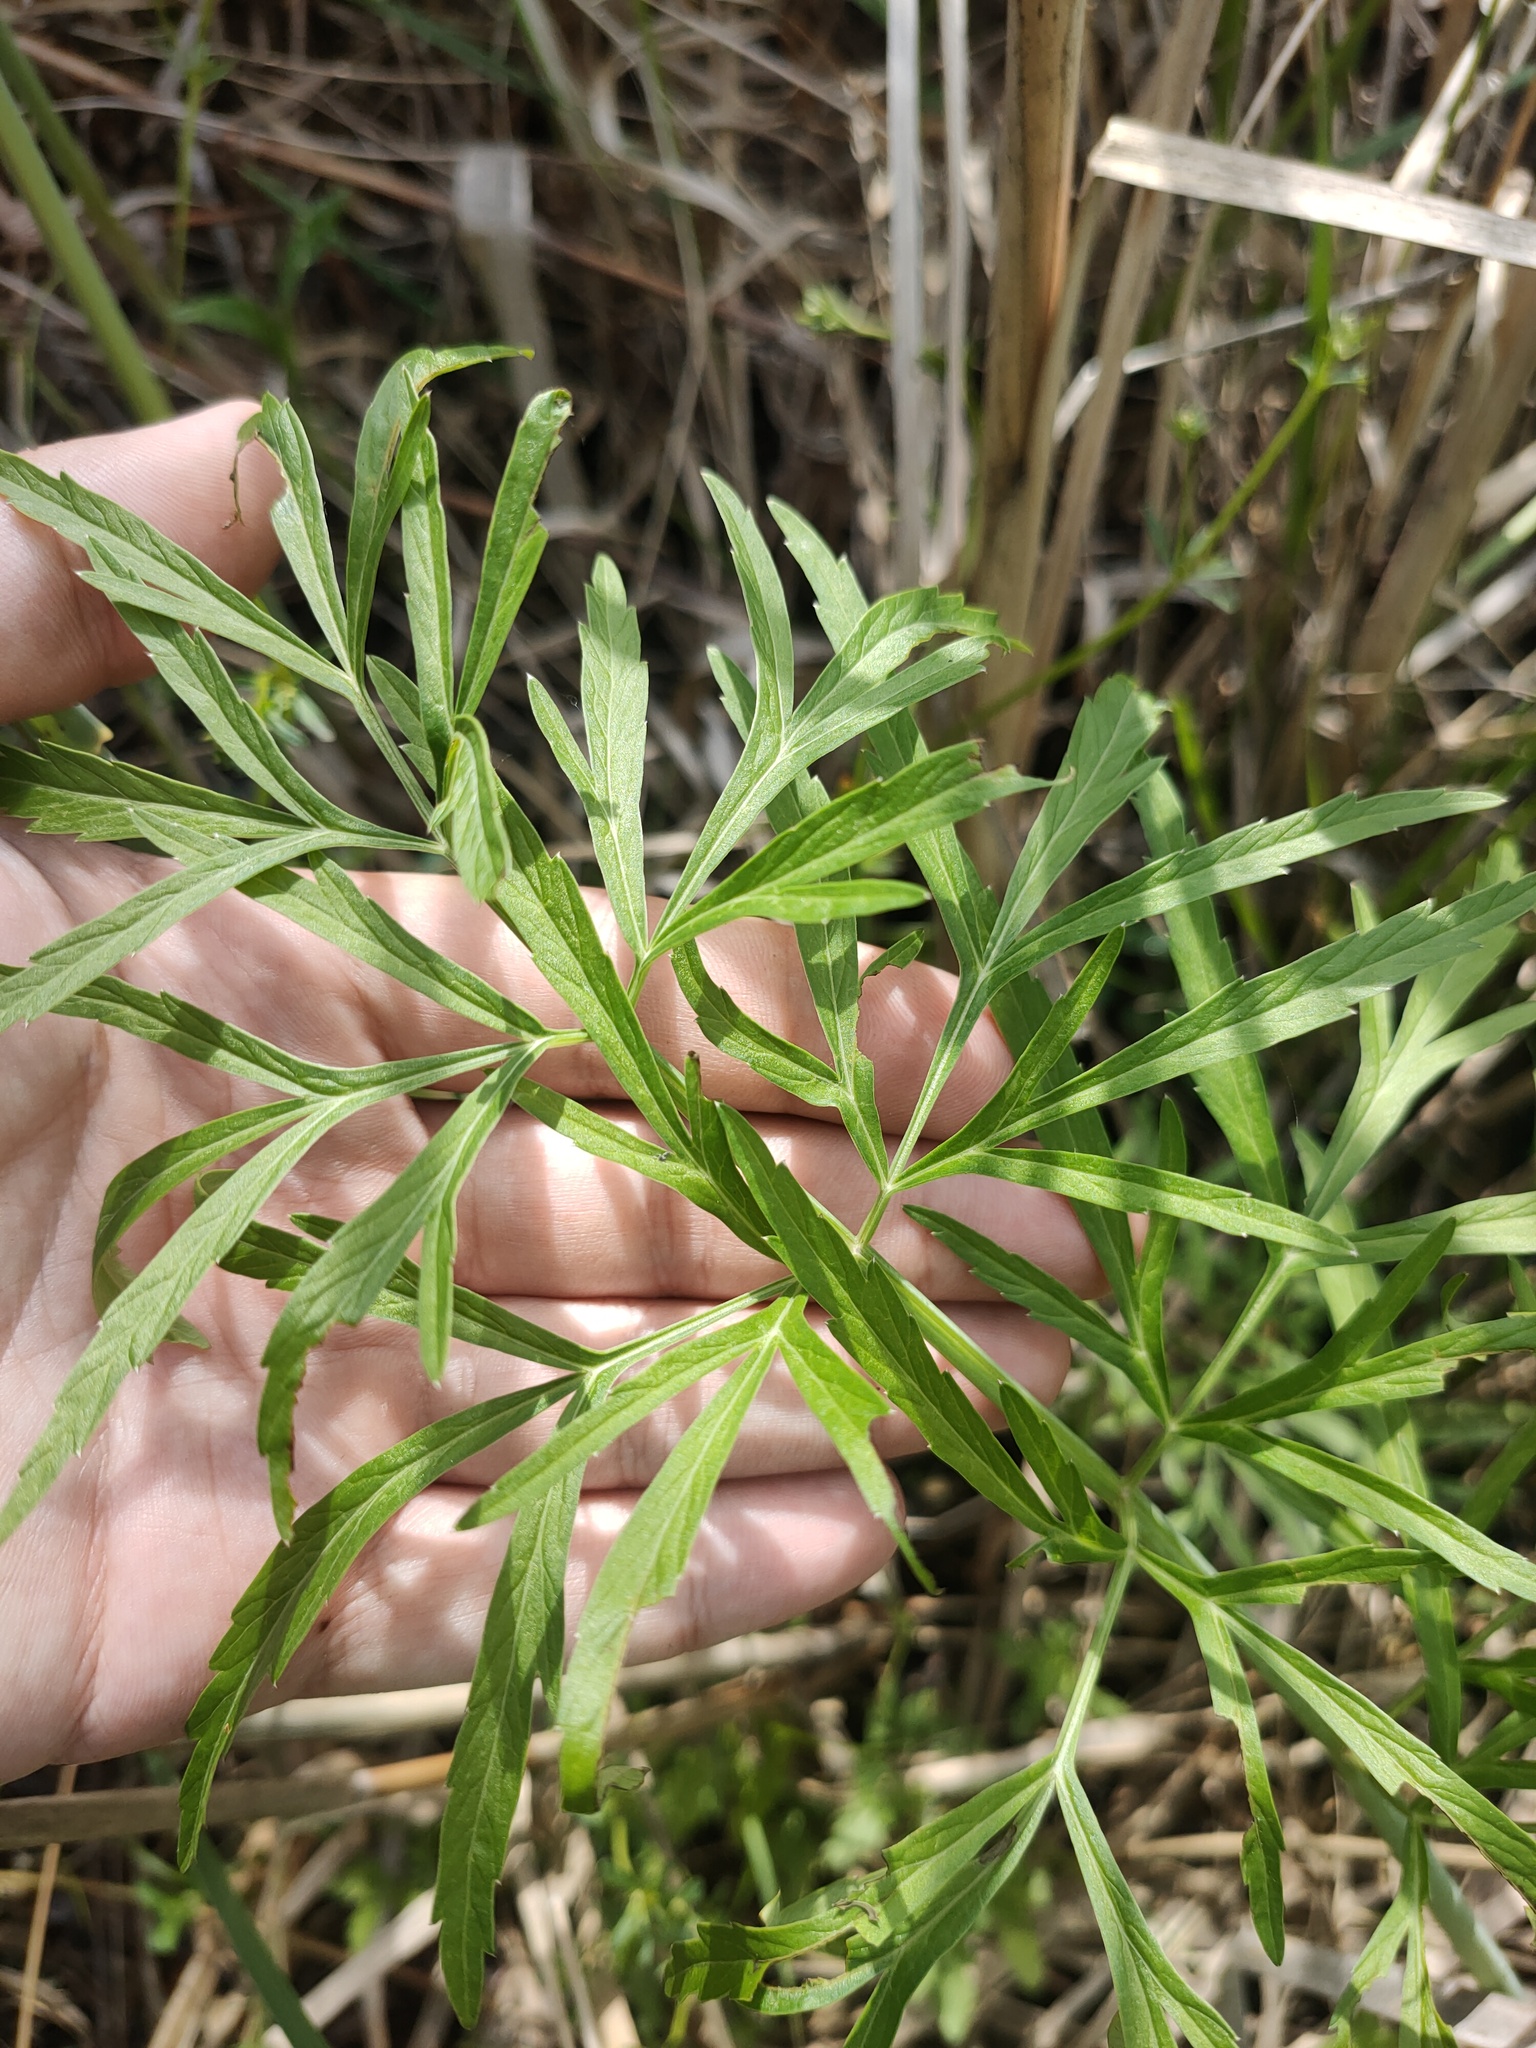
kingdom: Plantae
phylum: Tracheophyta
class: Magnoliopsida
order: Apiales
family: Apiaceae
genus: Cicuta
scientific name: Cicuta virosa
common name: Cowbane
